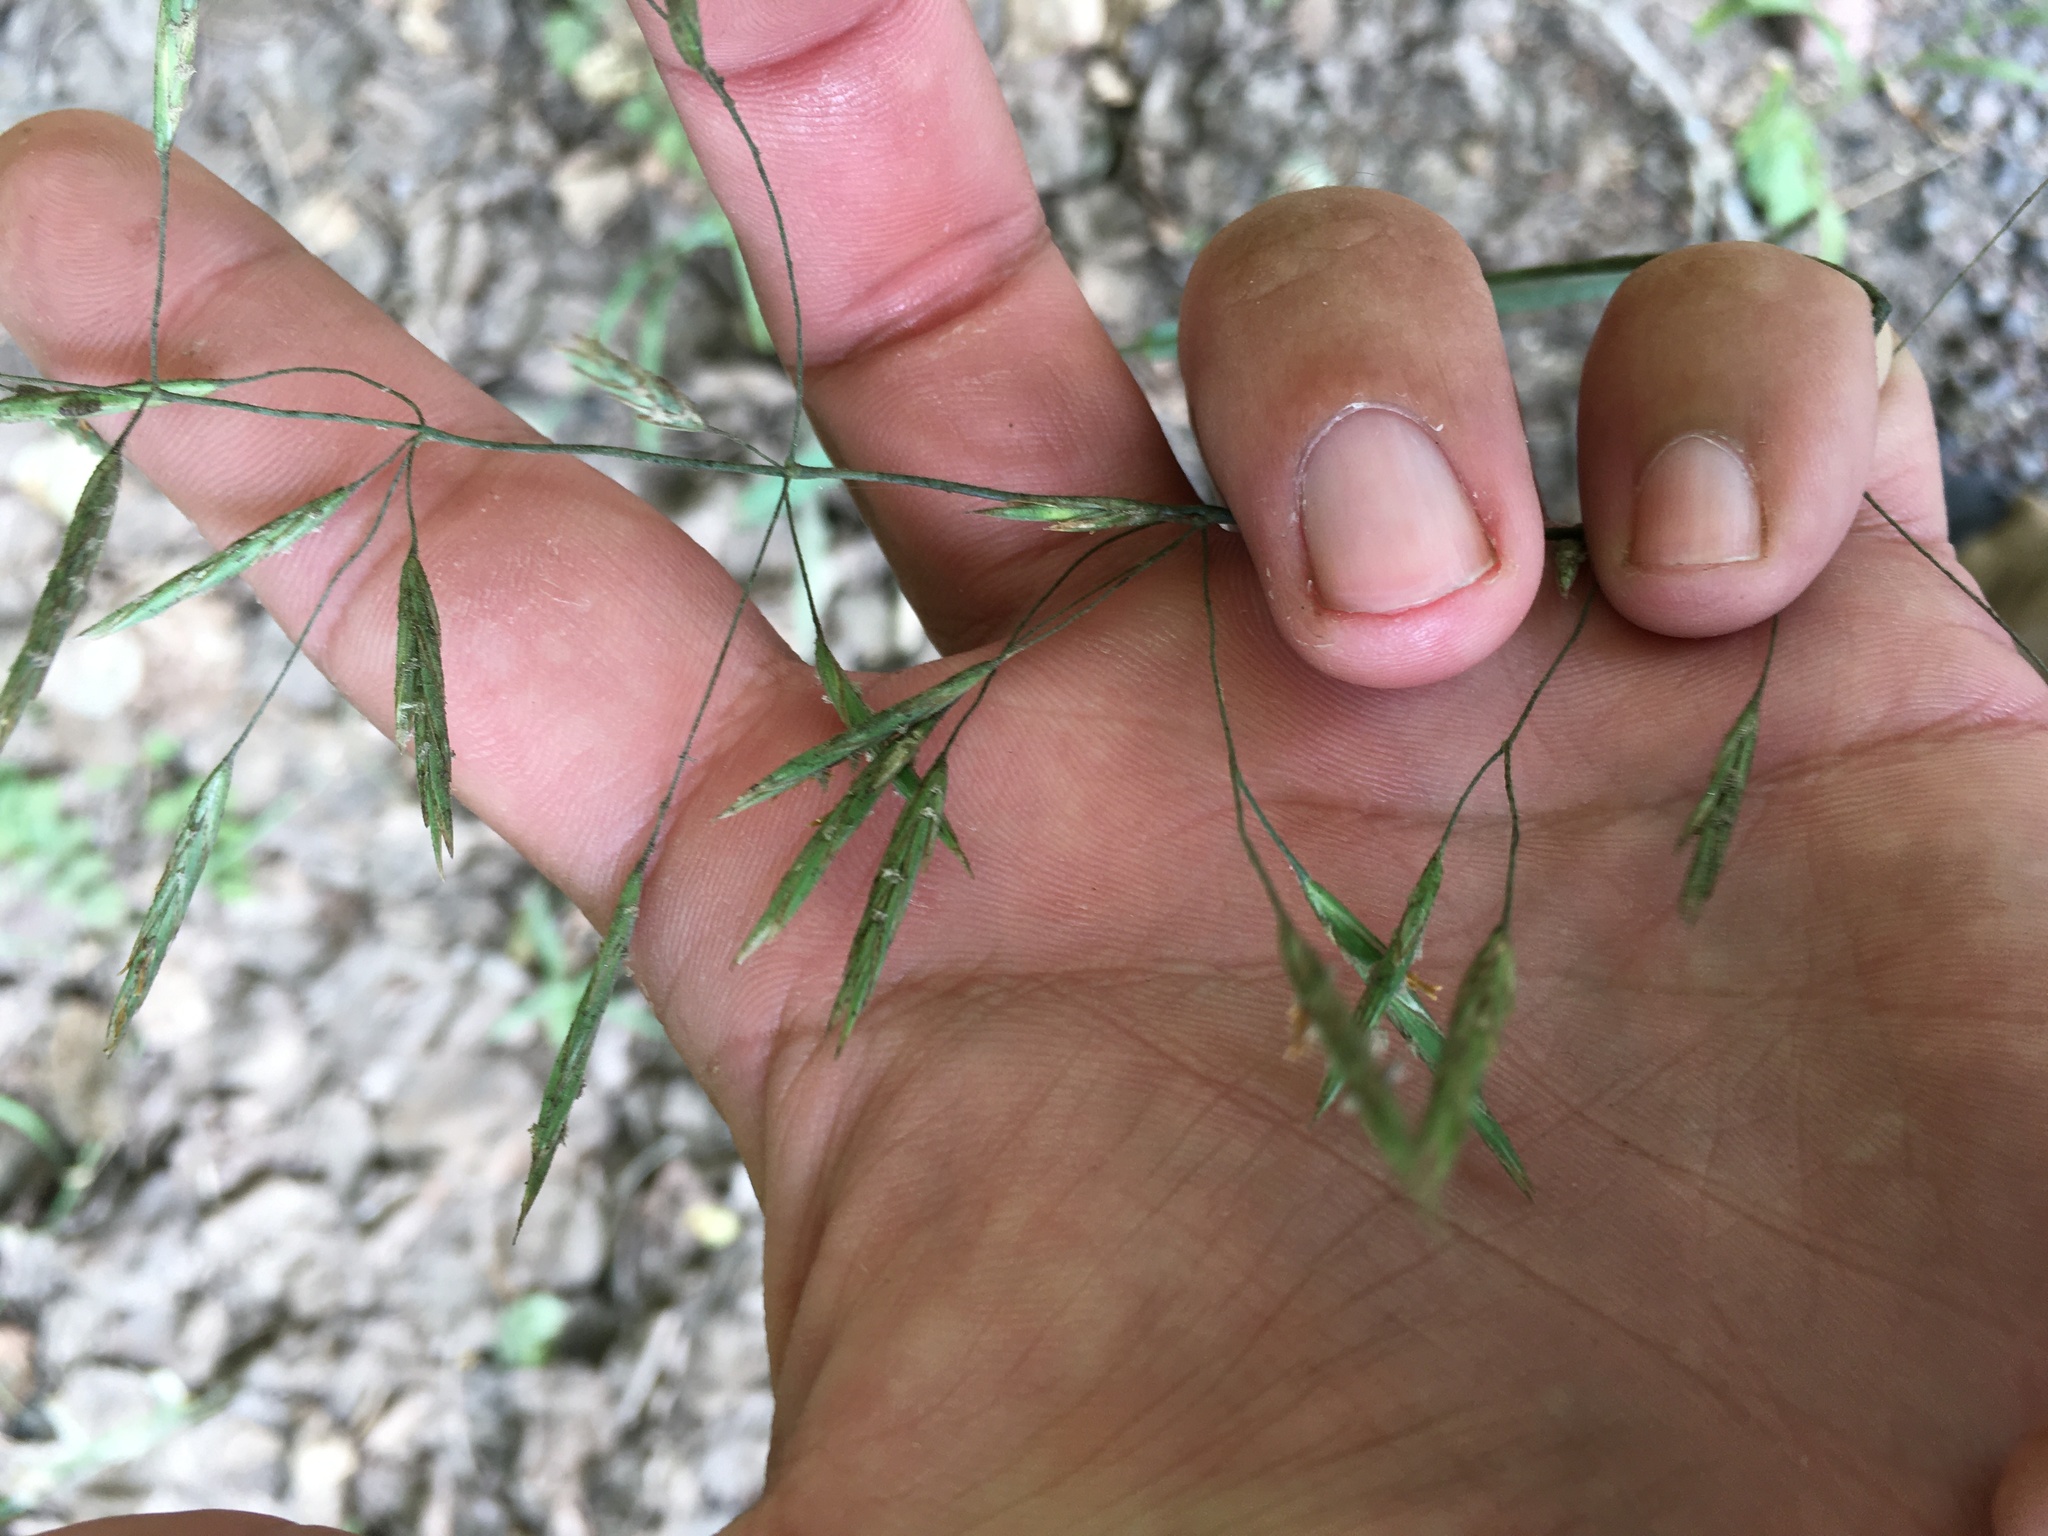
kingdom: Plantae
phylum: Tracheophyta
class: Liliopsida
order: Poales
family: Poaceae
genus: Bromus
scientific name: Bromus inermis
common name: Smooth brome
